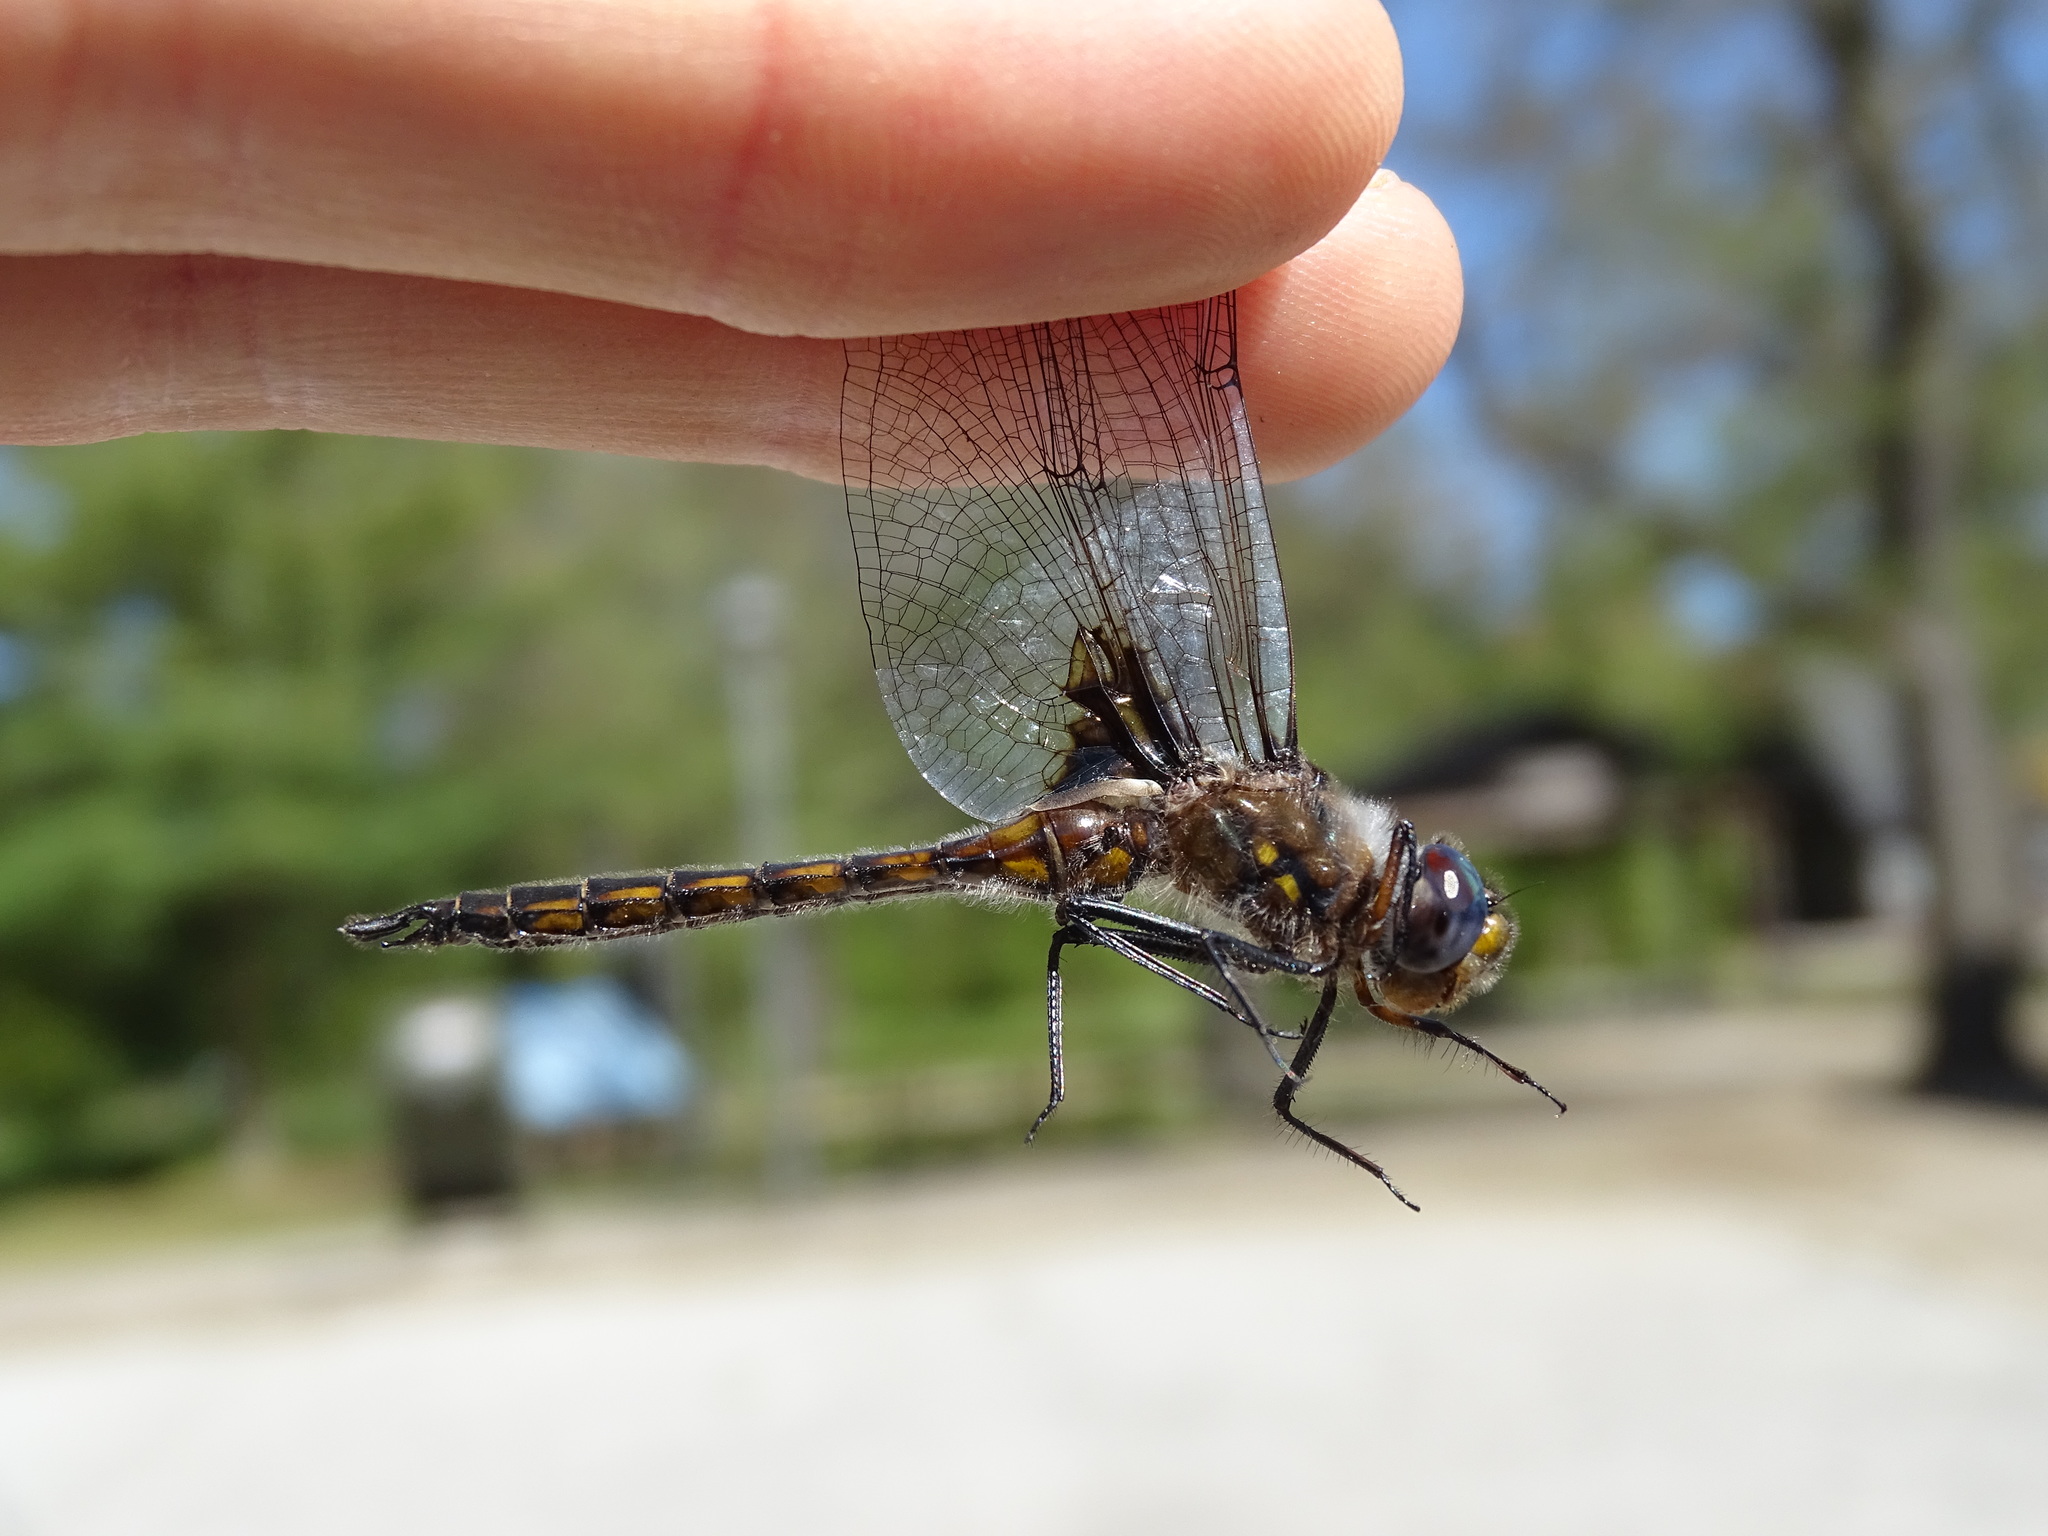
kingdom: Animalia
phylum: Arthropoda
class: Insecta
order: Odonata
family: Corduliidae
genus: Epitheca
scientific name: Epitheca cynosura
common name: Common baskettail
